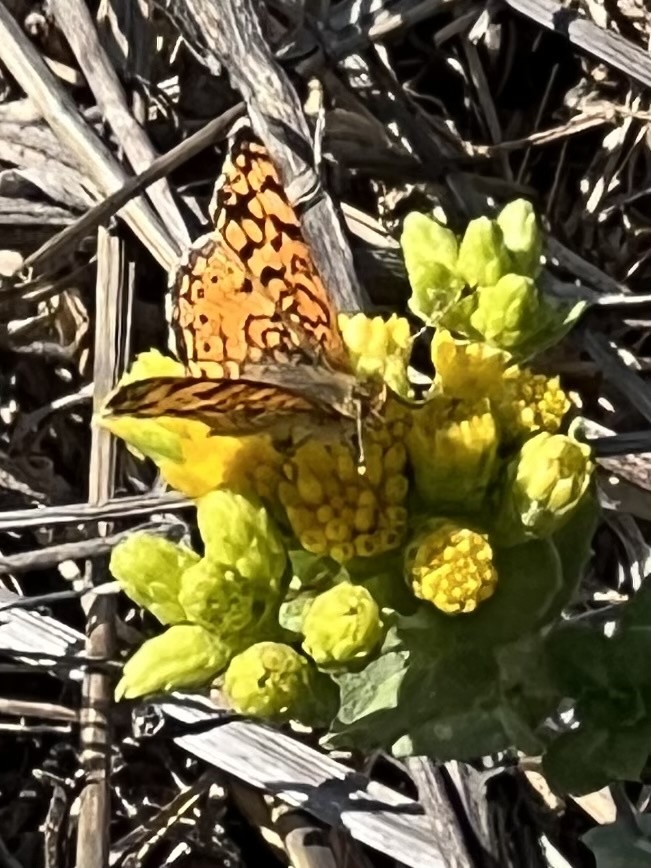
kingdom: Animalia
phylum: Arthropoda
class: Insecta
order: Lepidoptera
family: Nymphalidae
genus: Eresia
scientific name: Eresia aveyrona
